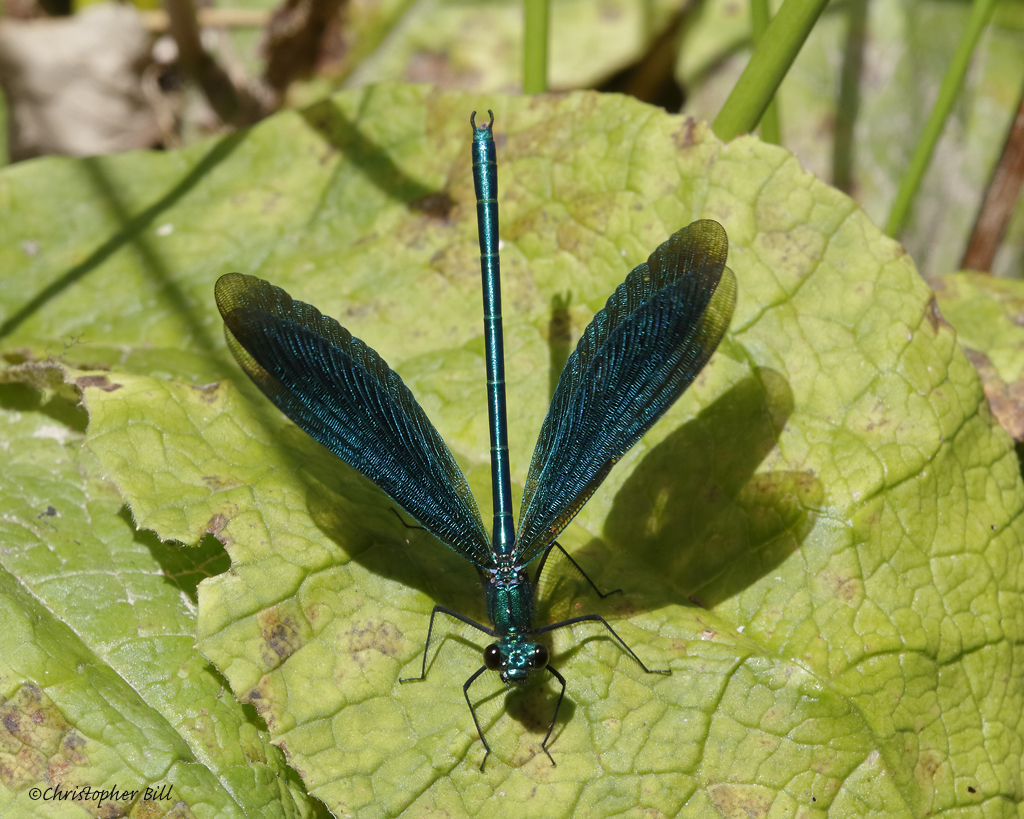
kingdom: Animalia
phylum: Arthropoda
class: Insecta
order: Odonata
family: Calopterygidae
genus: Calopteryx
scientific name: Calopteryx virgo
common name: Beautiful demoiselle
